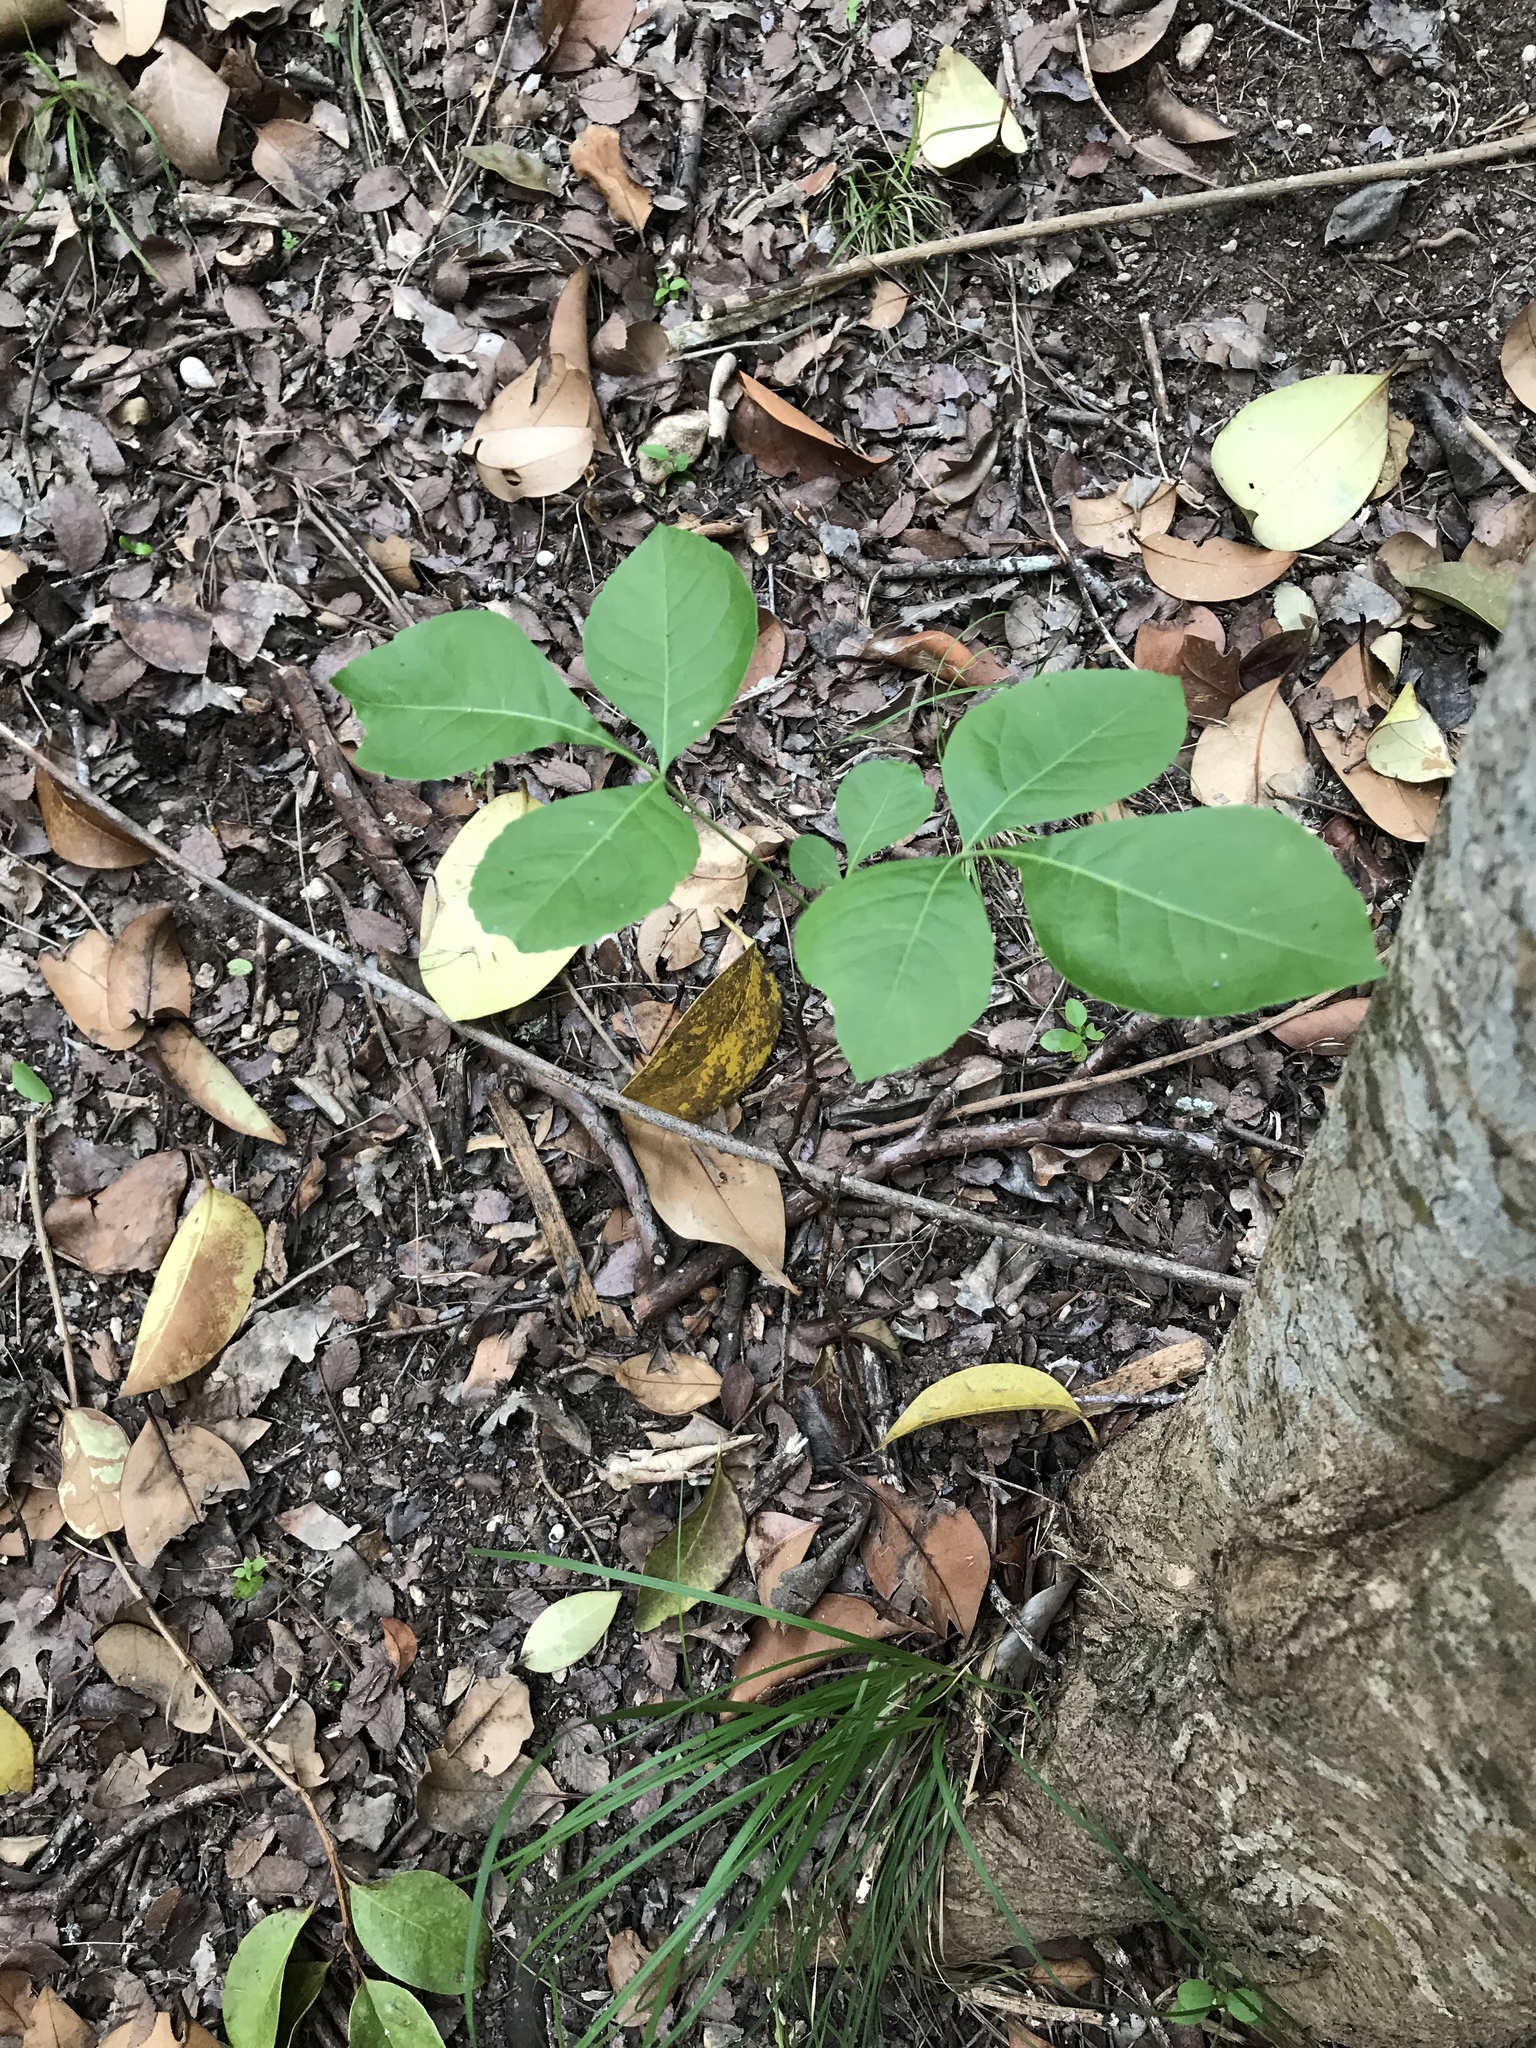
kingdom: Plantae
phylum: Tracheophyta
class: Magnoliopsida
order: Sapindales
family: Rutaceae
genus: Ptelea
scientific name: Ptelea trifoliata
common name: Common hop-tree
